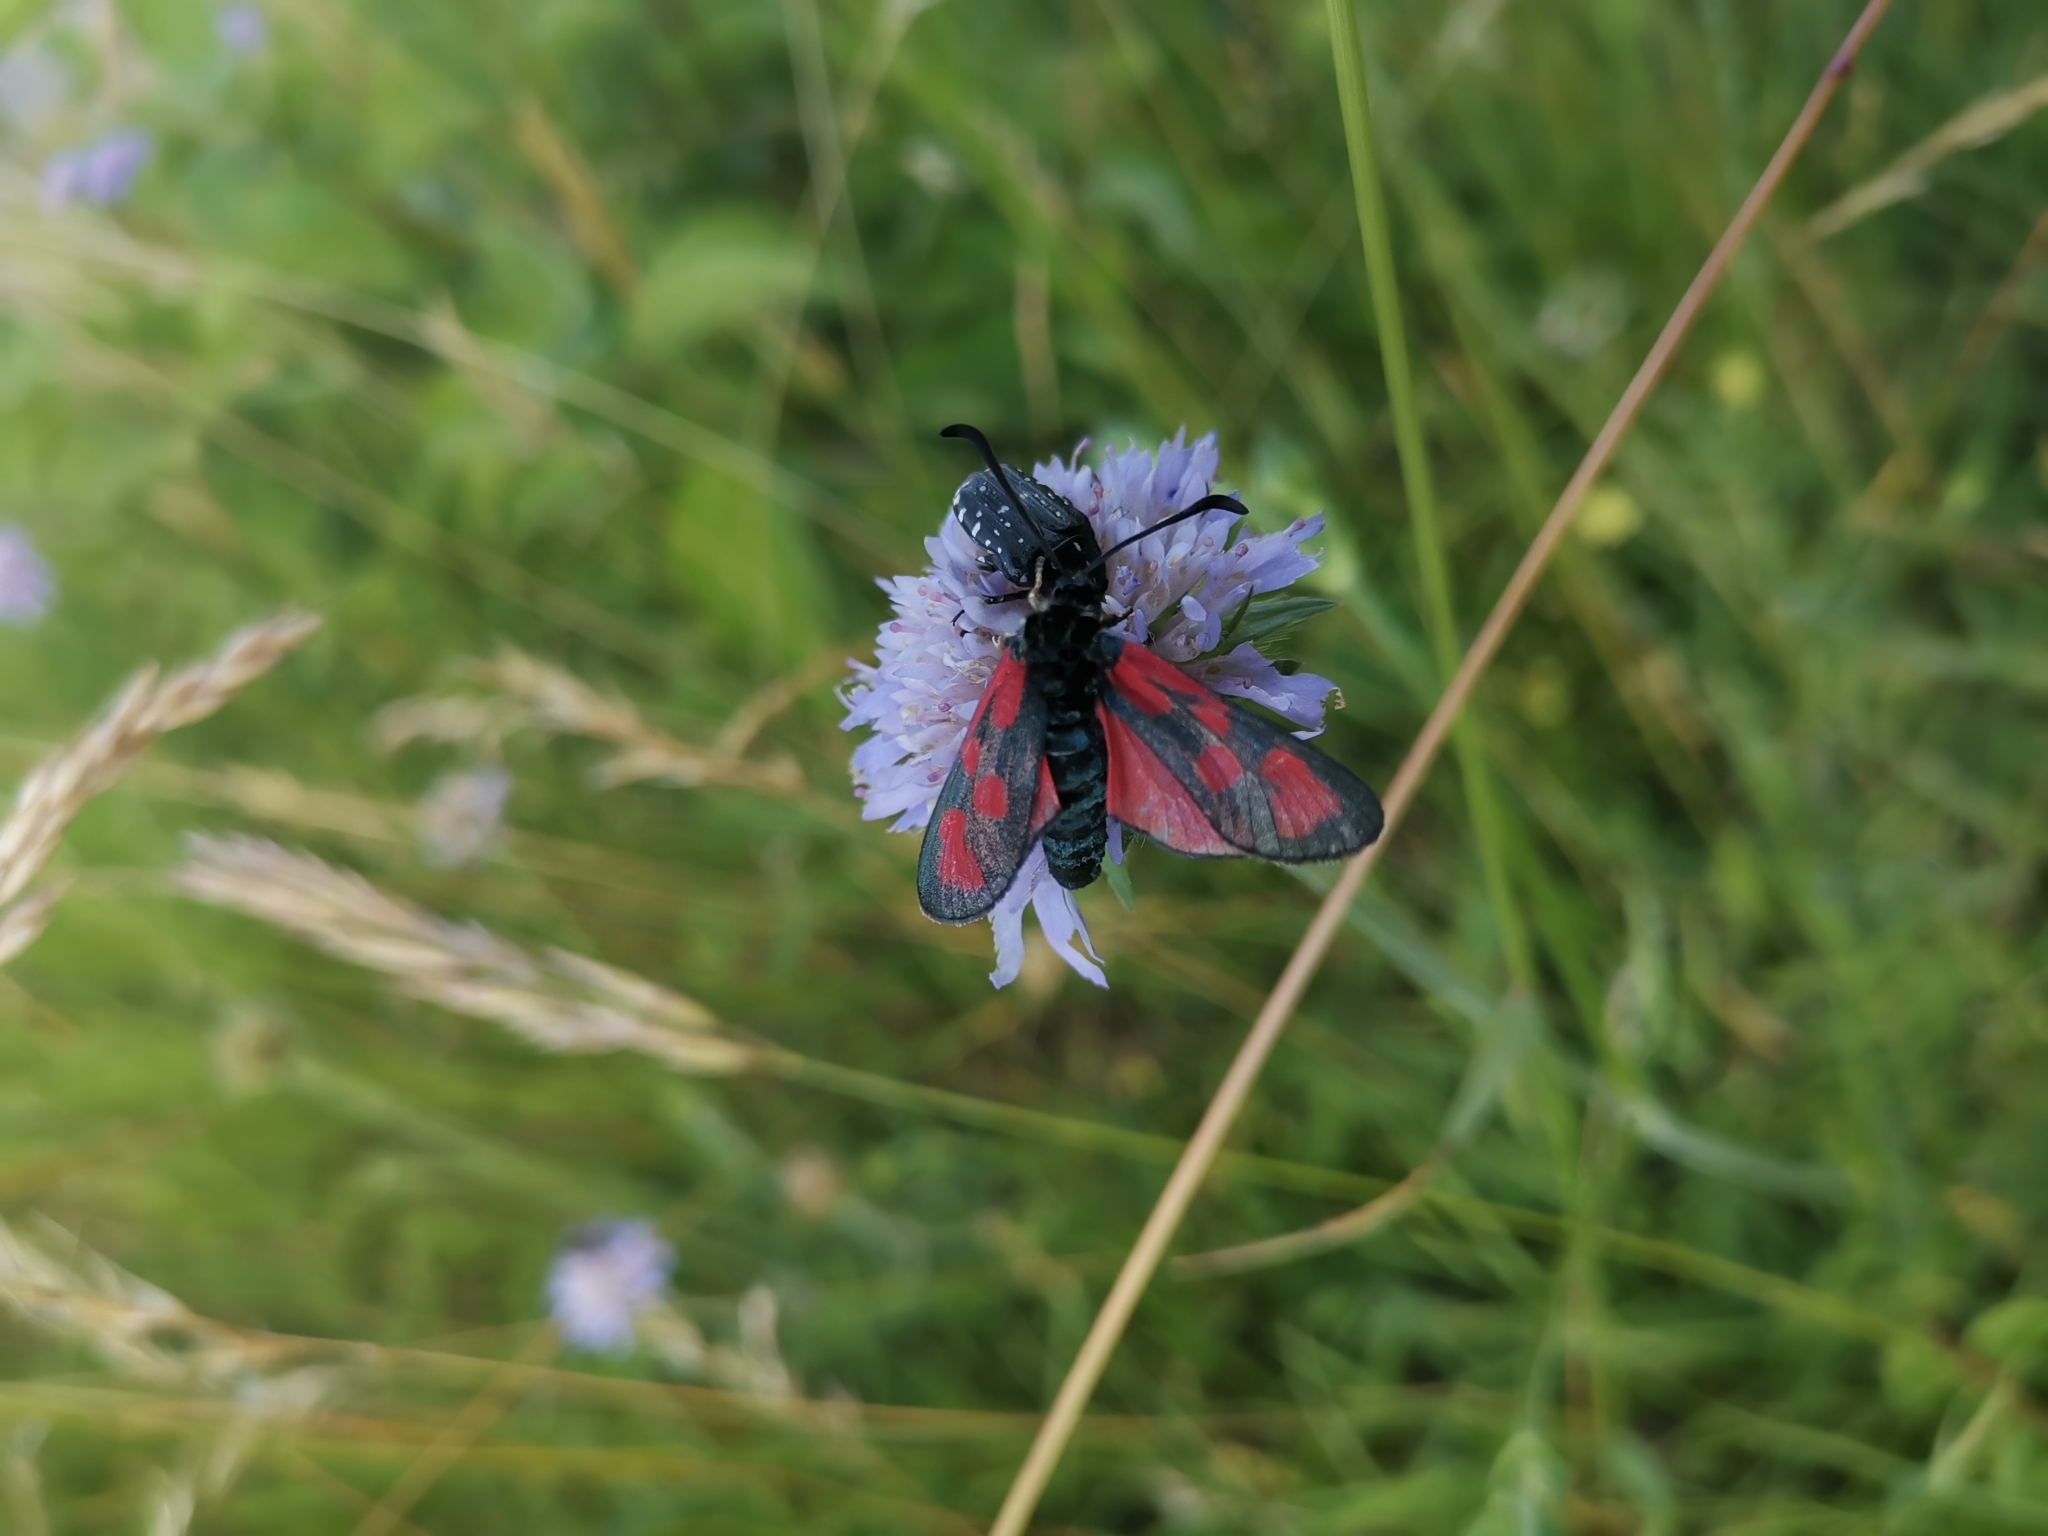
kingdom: Animalia
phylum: Arthropoda
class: Insecta
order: Lepidoptera
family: Zygaenidae
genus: Zygaena
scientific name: Zygaena loti
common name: Slender scotch burnet
